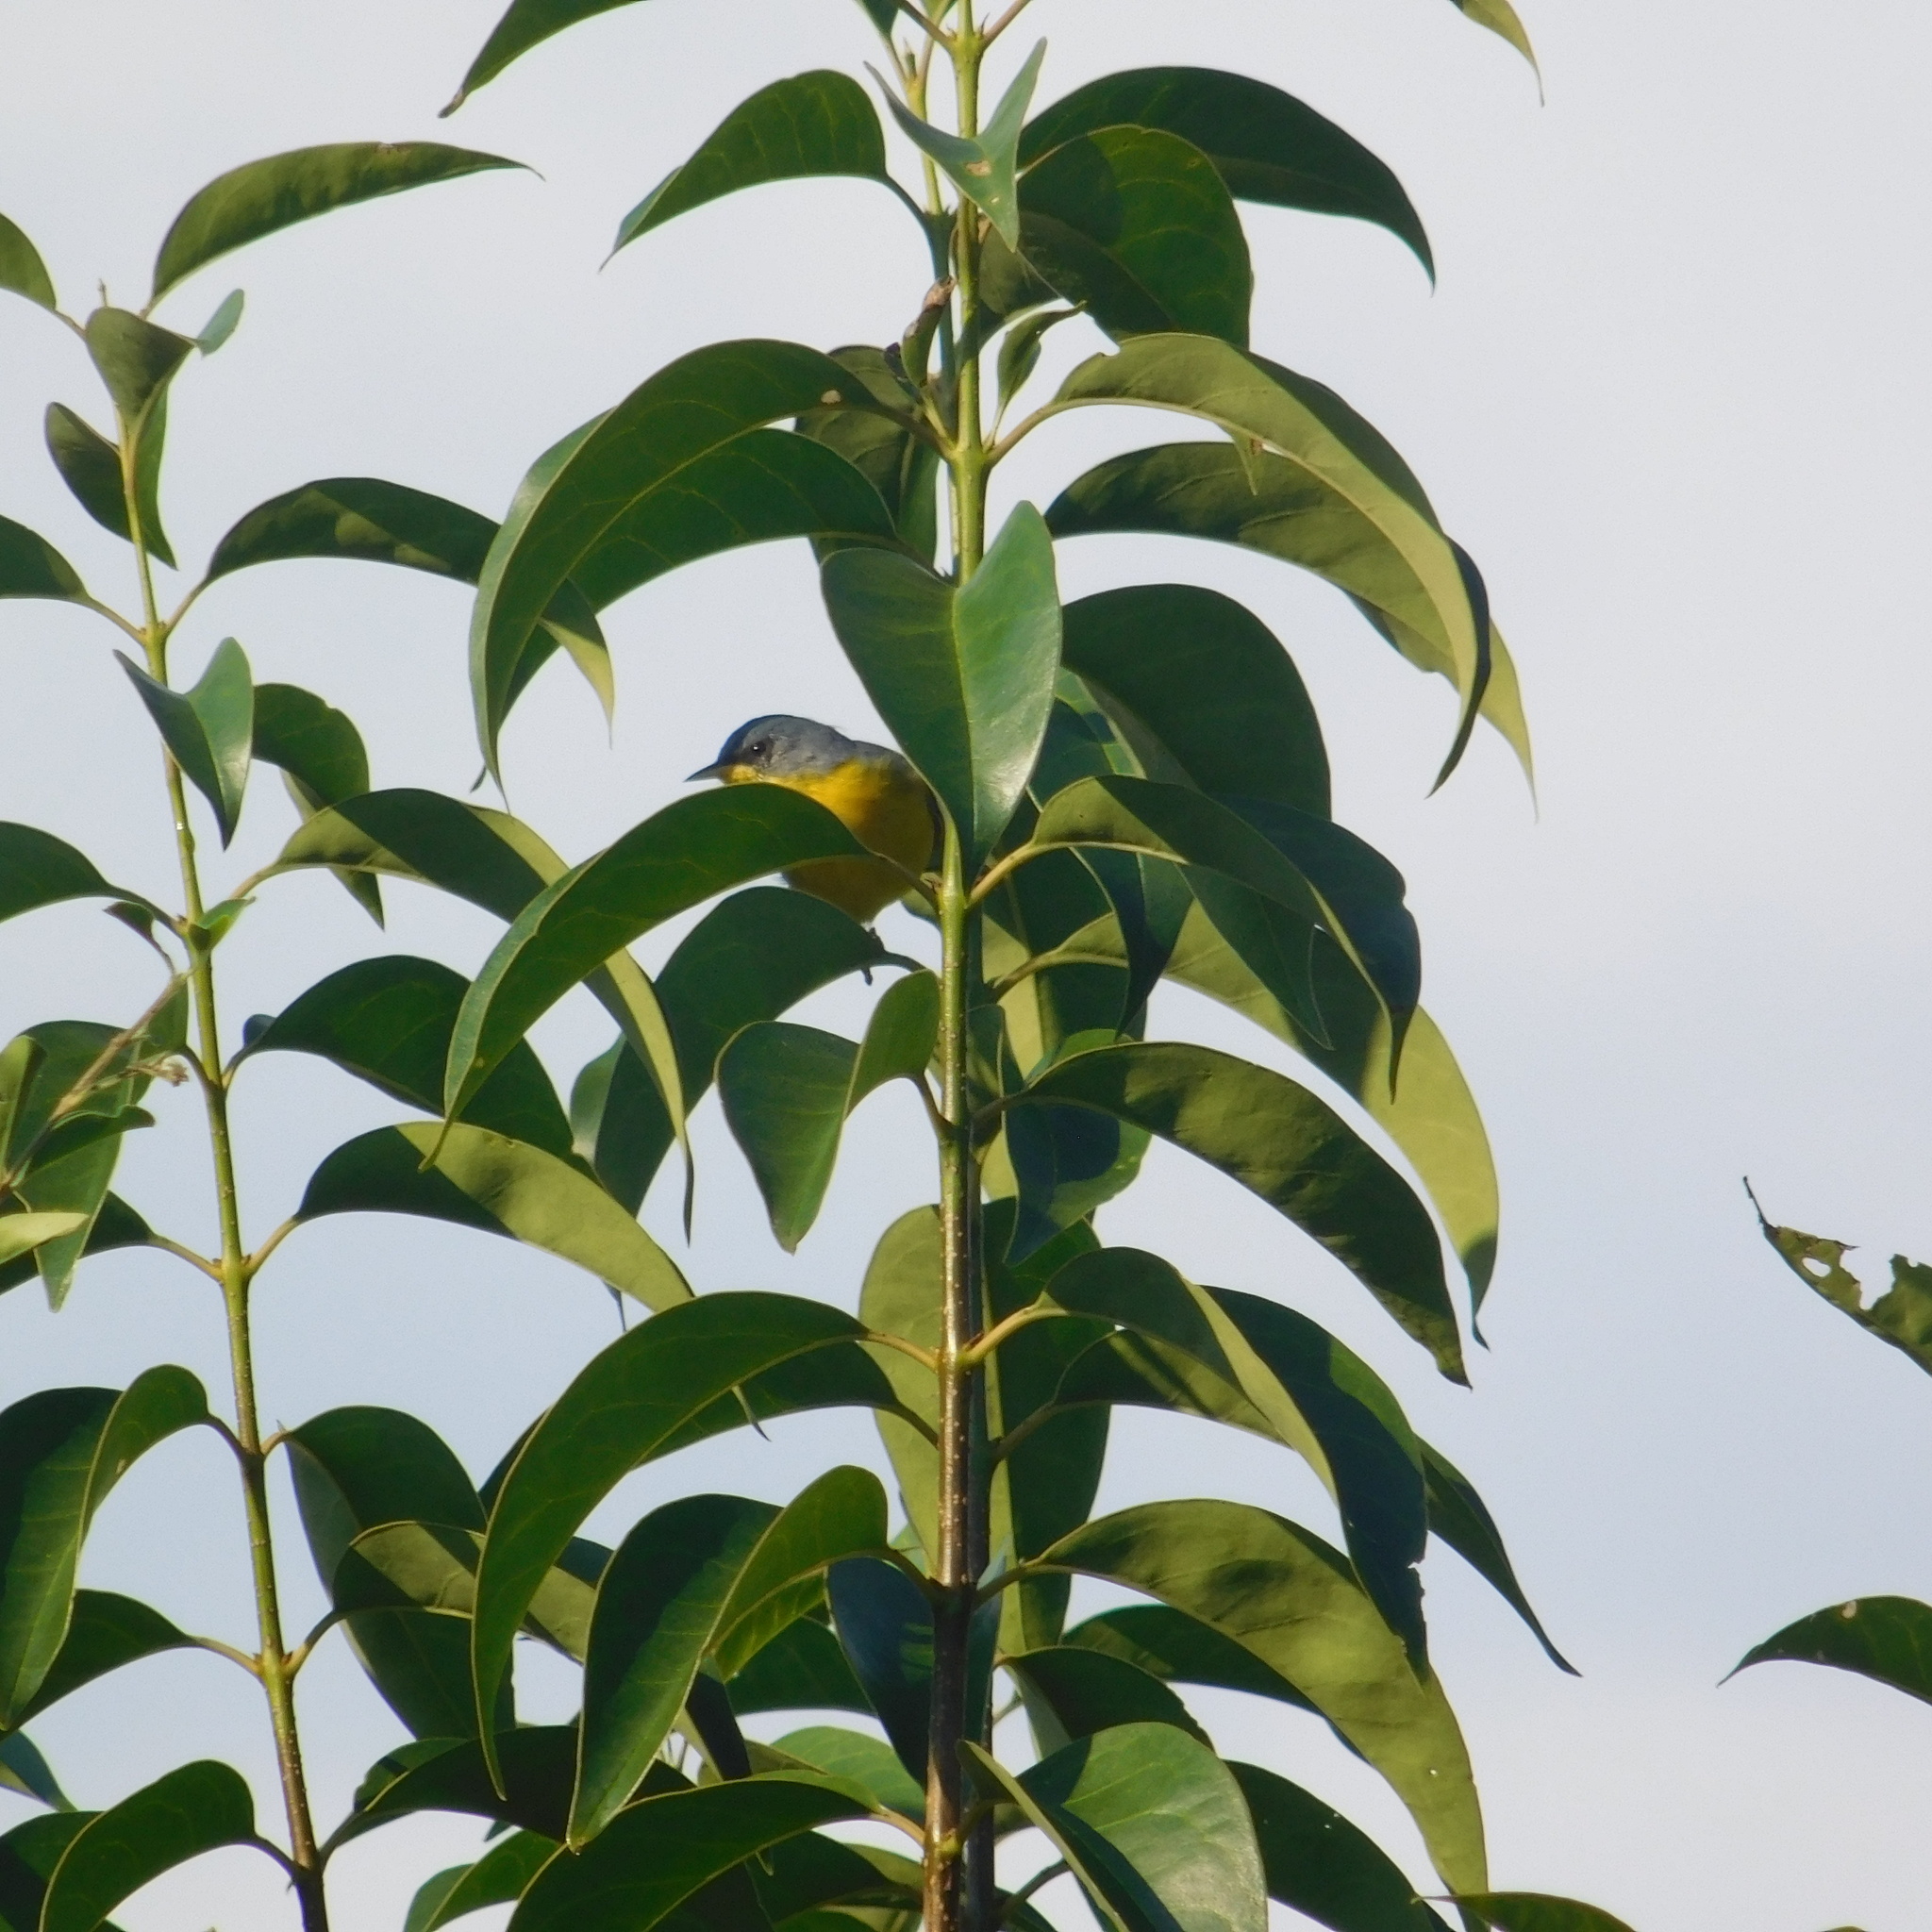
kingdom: Animalia
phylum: Chordata
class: Aves
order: Passeriformes
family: Parulidae
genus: Setophaga
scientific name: Setophaga pitiayumi
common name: Tropical parula
